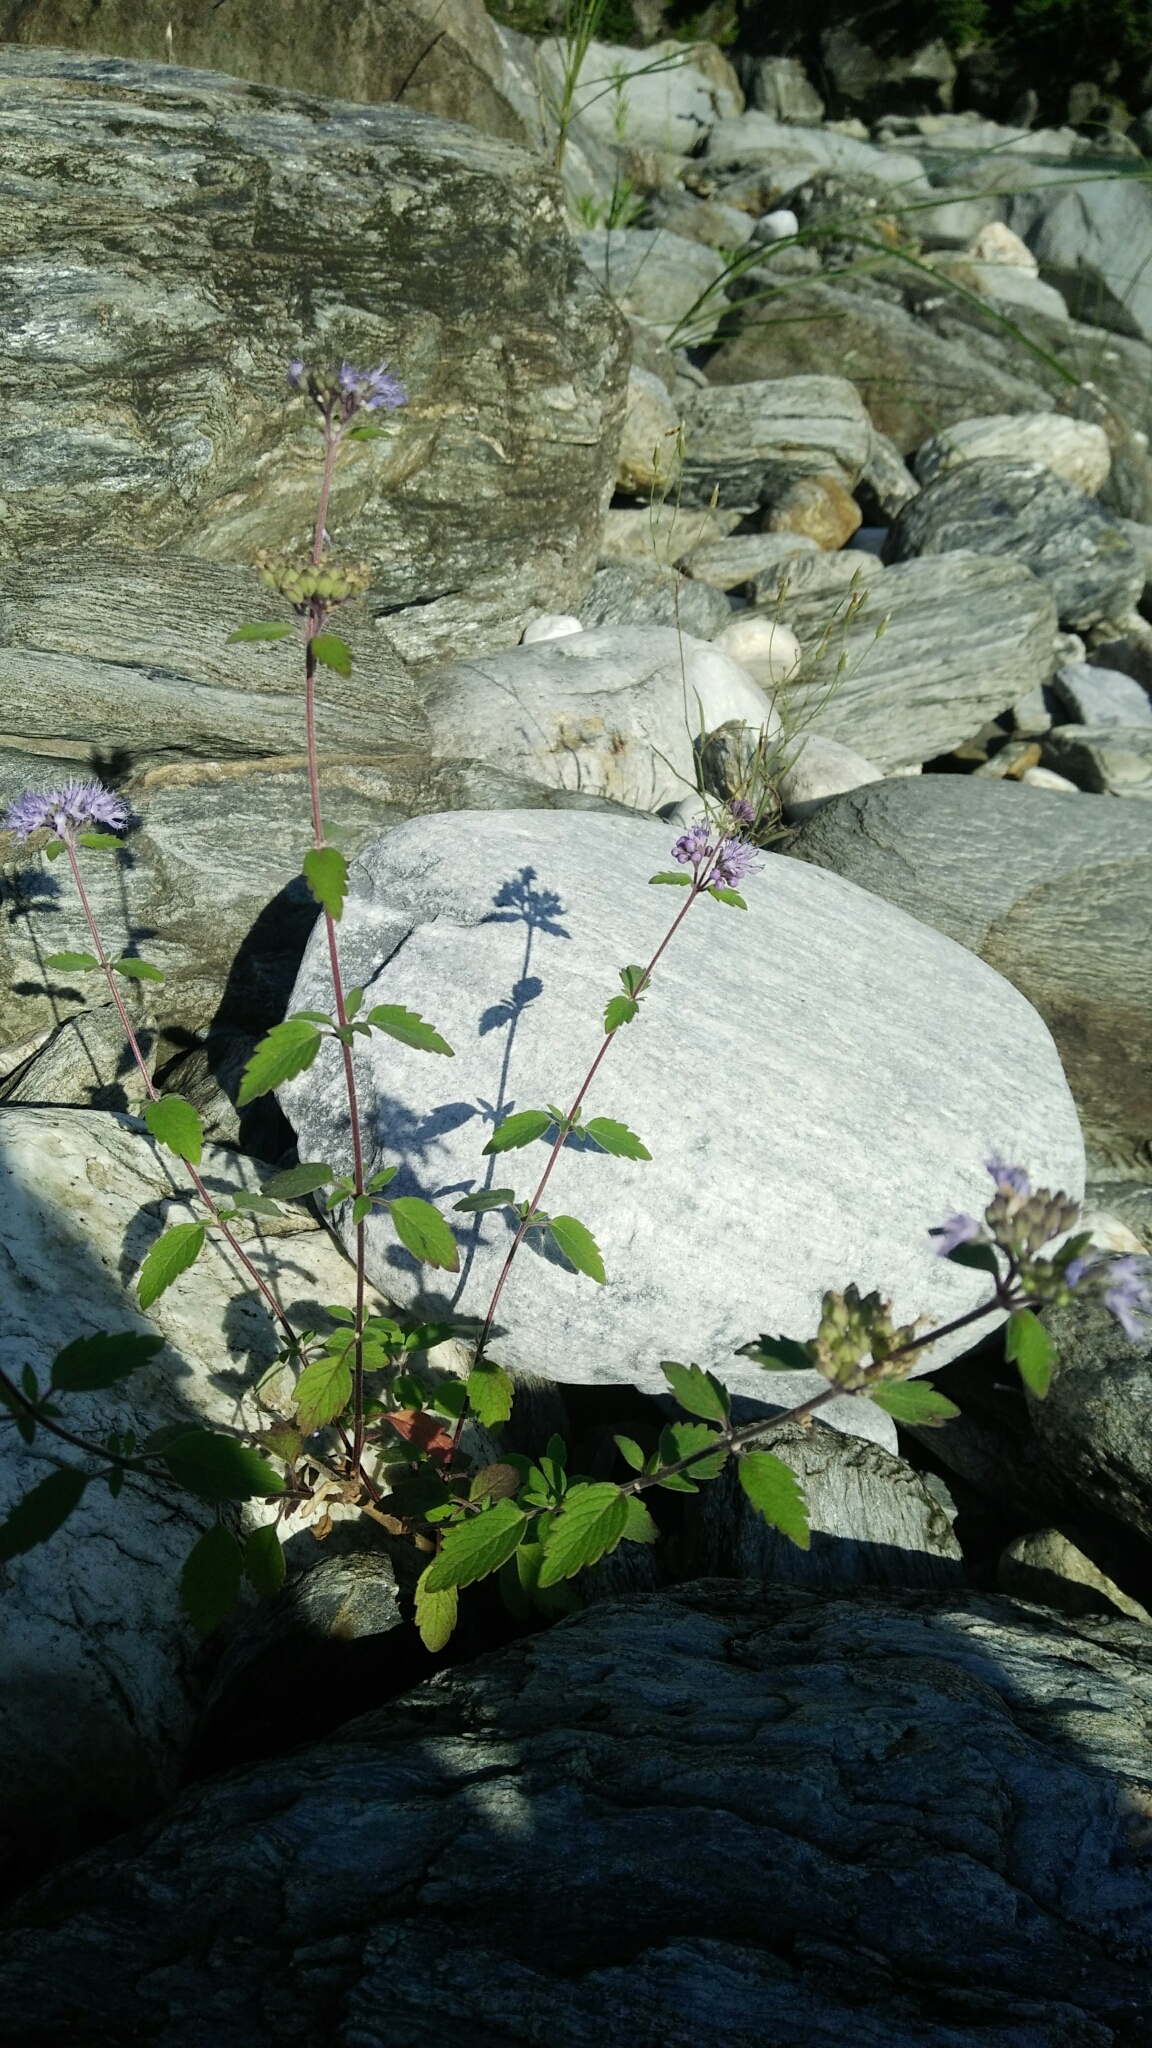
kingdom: Plantae
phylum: Tracheophyta
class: Magnoliopsida
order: Lamiales
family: Lamiaceae
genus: Caryopteris
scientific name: Caryopteris incana
